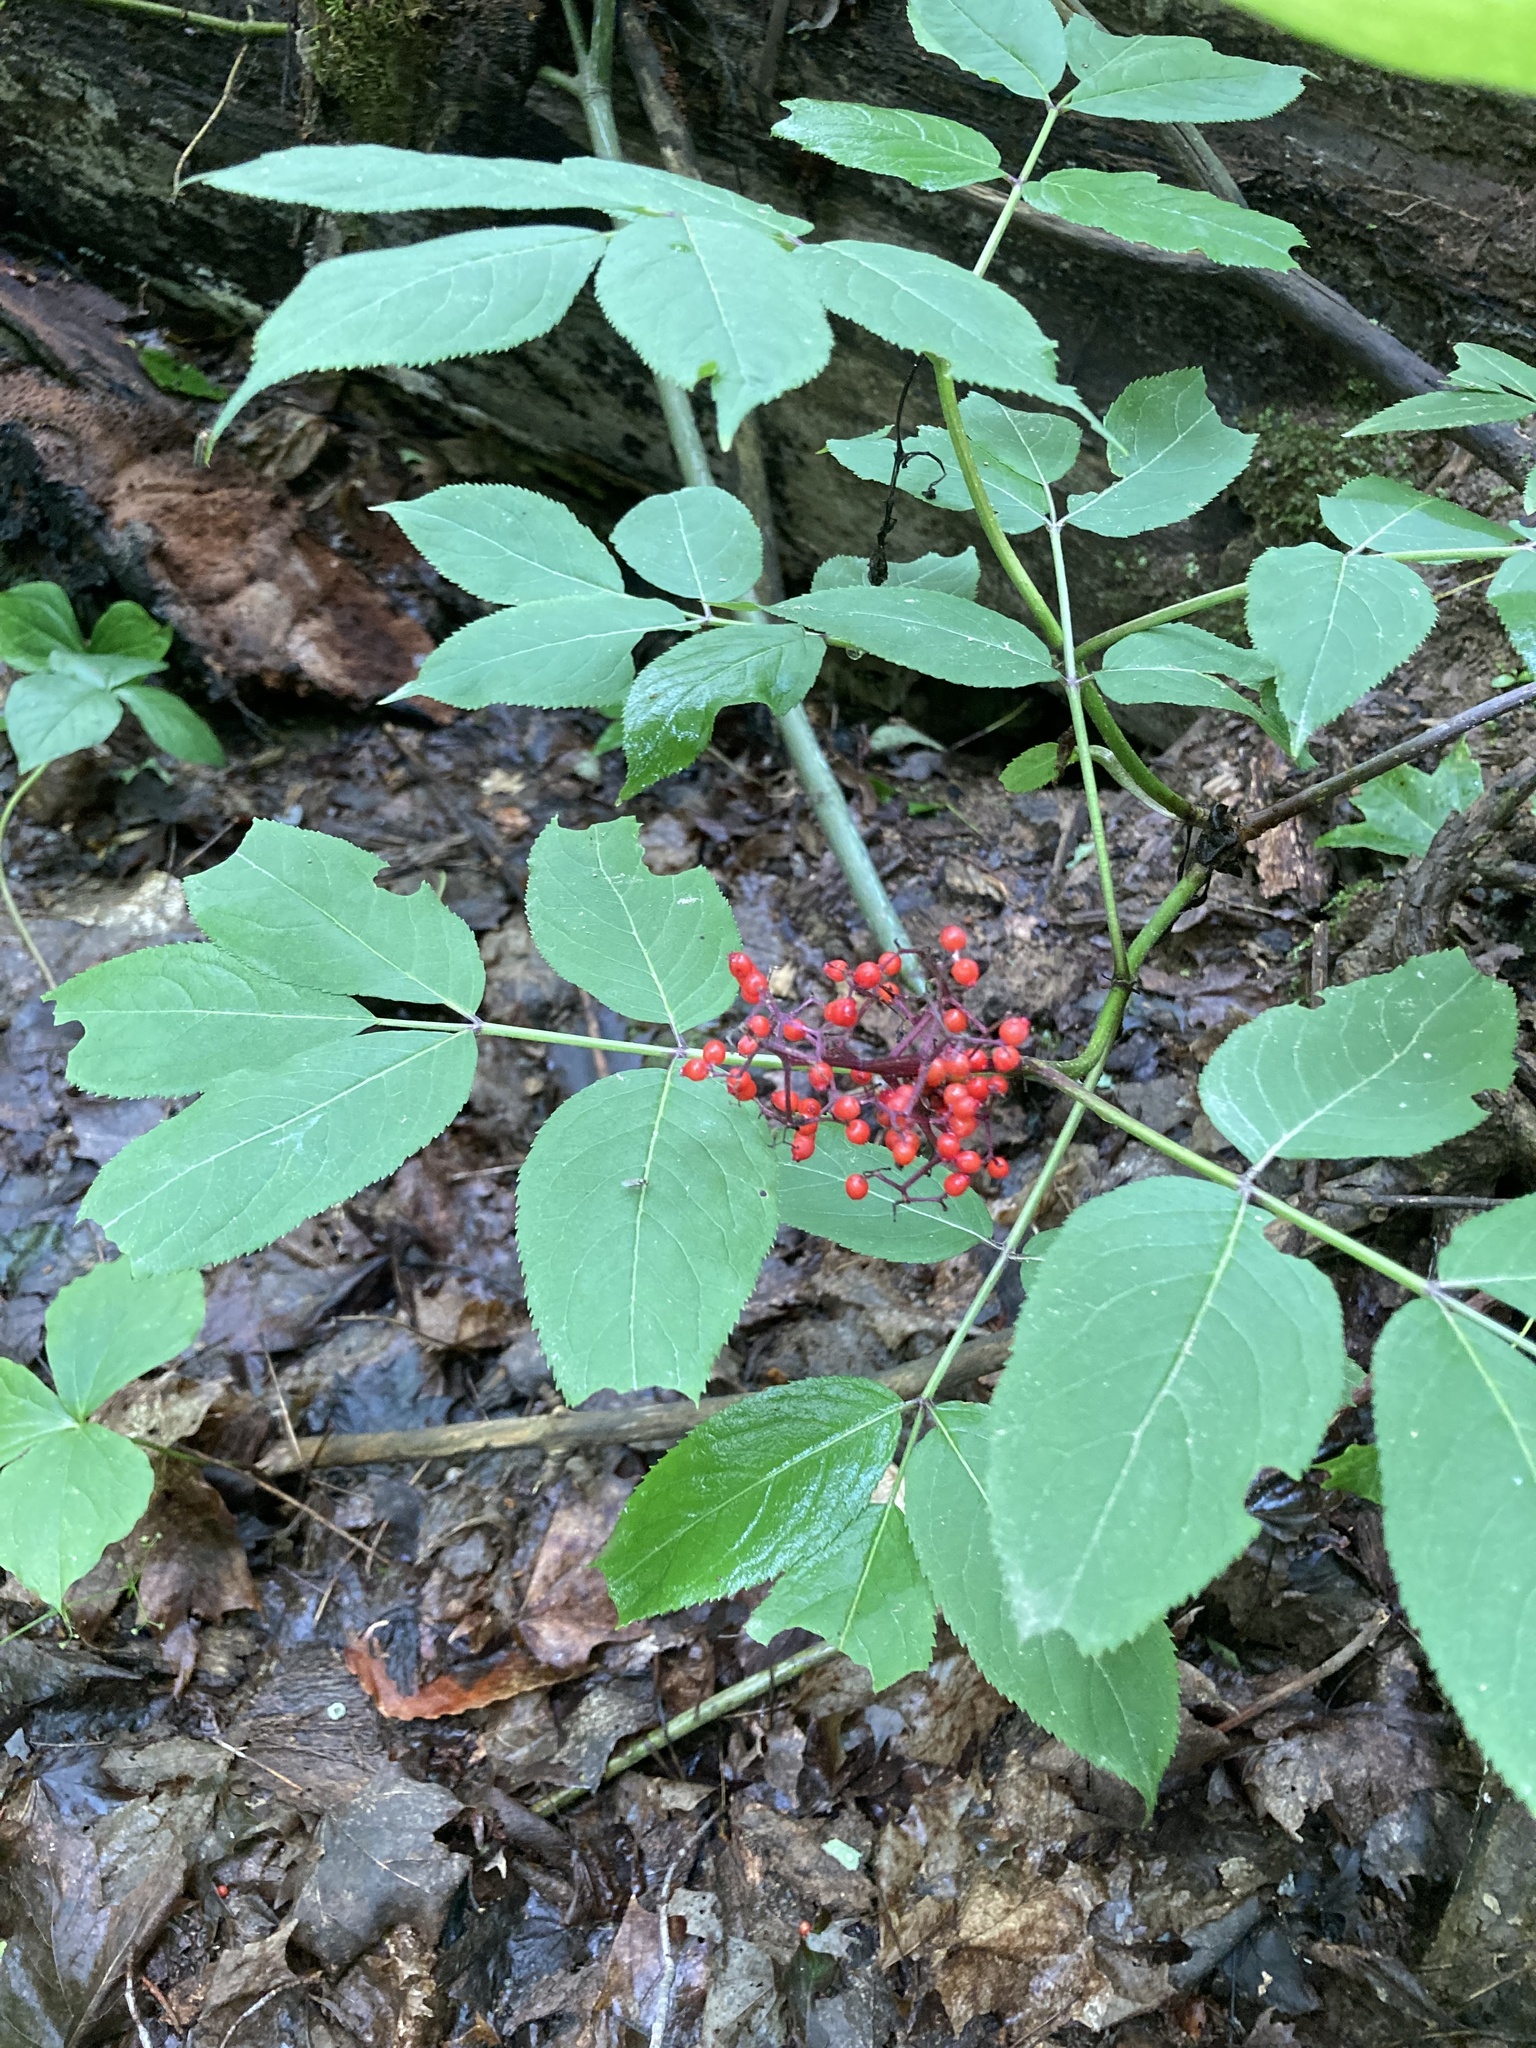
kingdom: Plantae
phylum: Tracheophyta
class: Magnoliopsida
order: Dipsacales
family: Viburnaceae
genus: Sambucus
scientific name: Sambucus racemosa
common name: Red-berried elder
